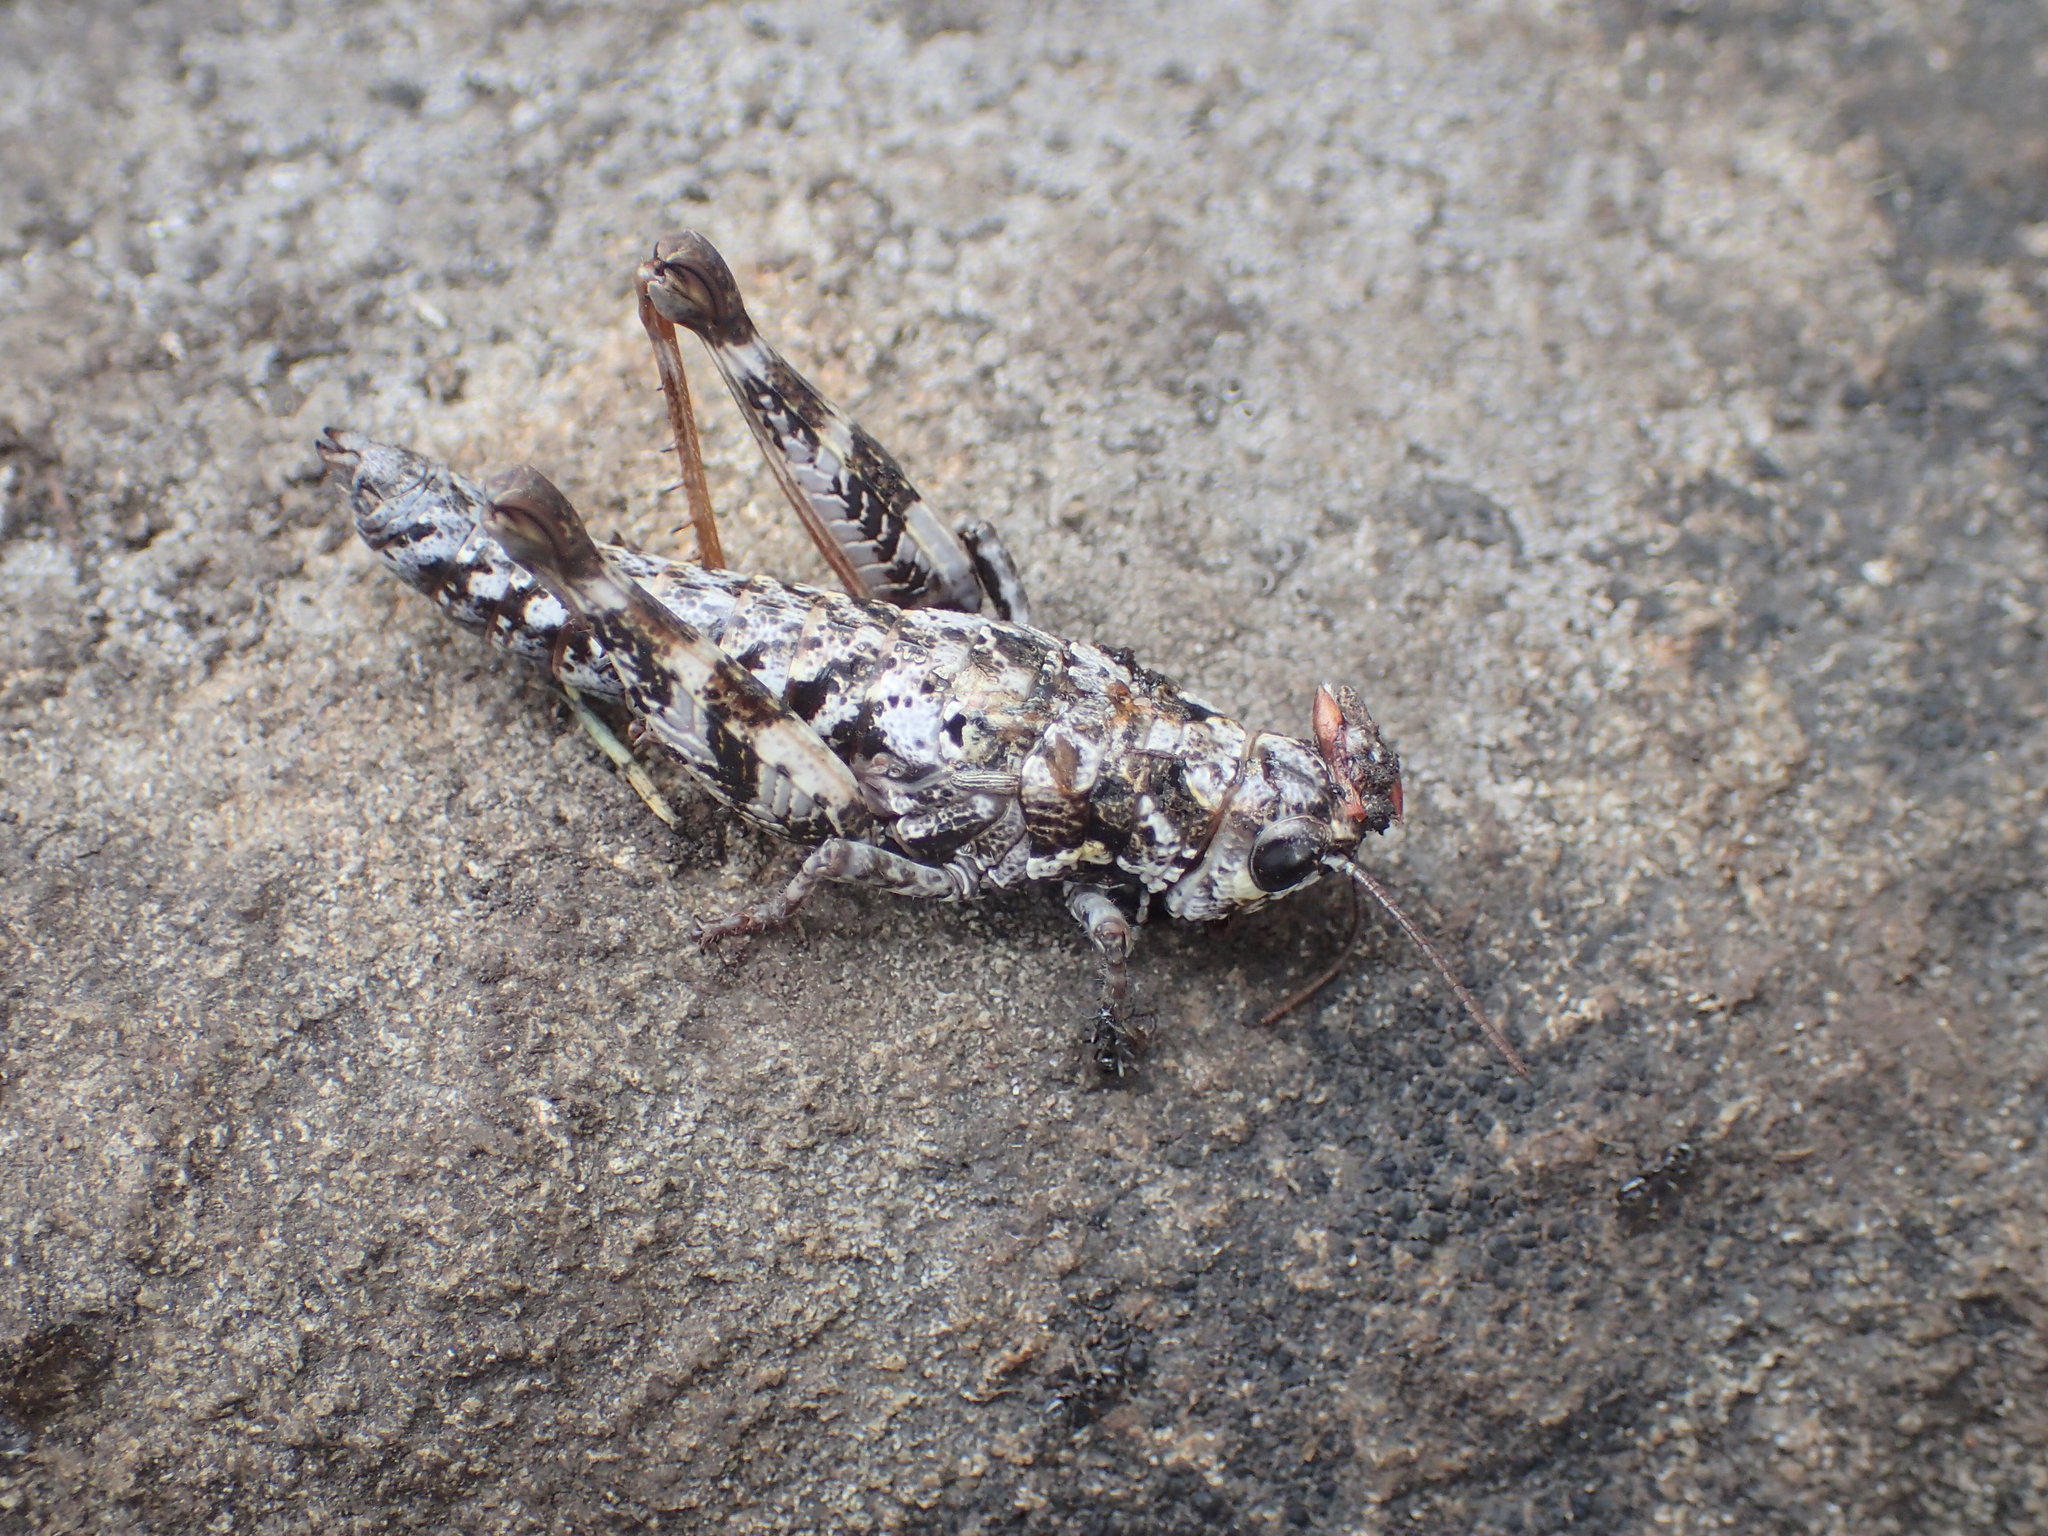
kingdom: Animalia
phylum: Arthropoda
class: Insecta
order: Orthoptera
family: Acrididae
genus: Tasmaniacris
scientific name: Tasmaniacris tasmaniensis
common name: Tasmanian grasshopper
